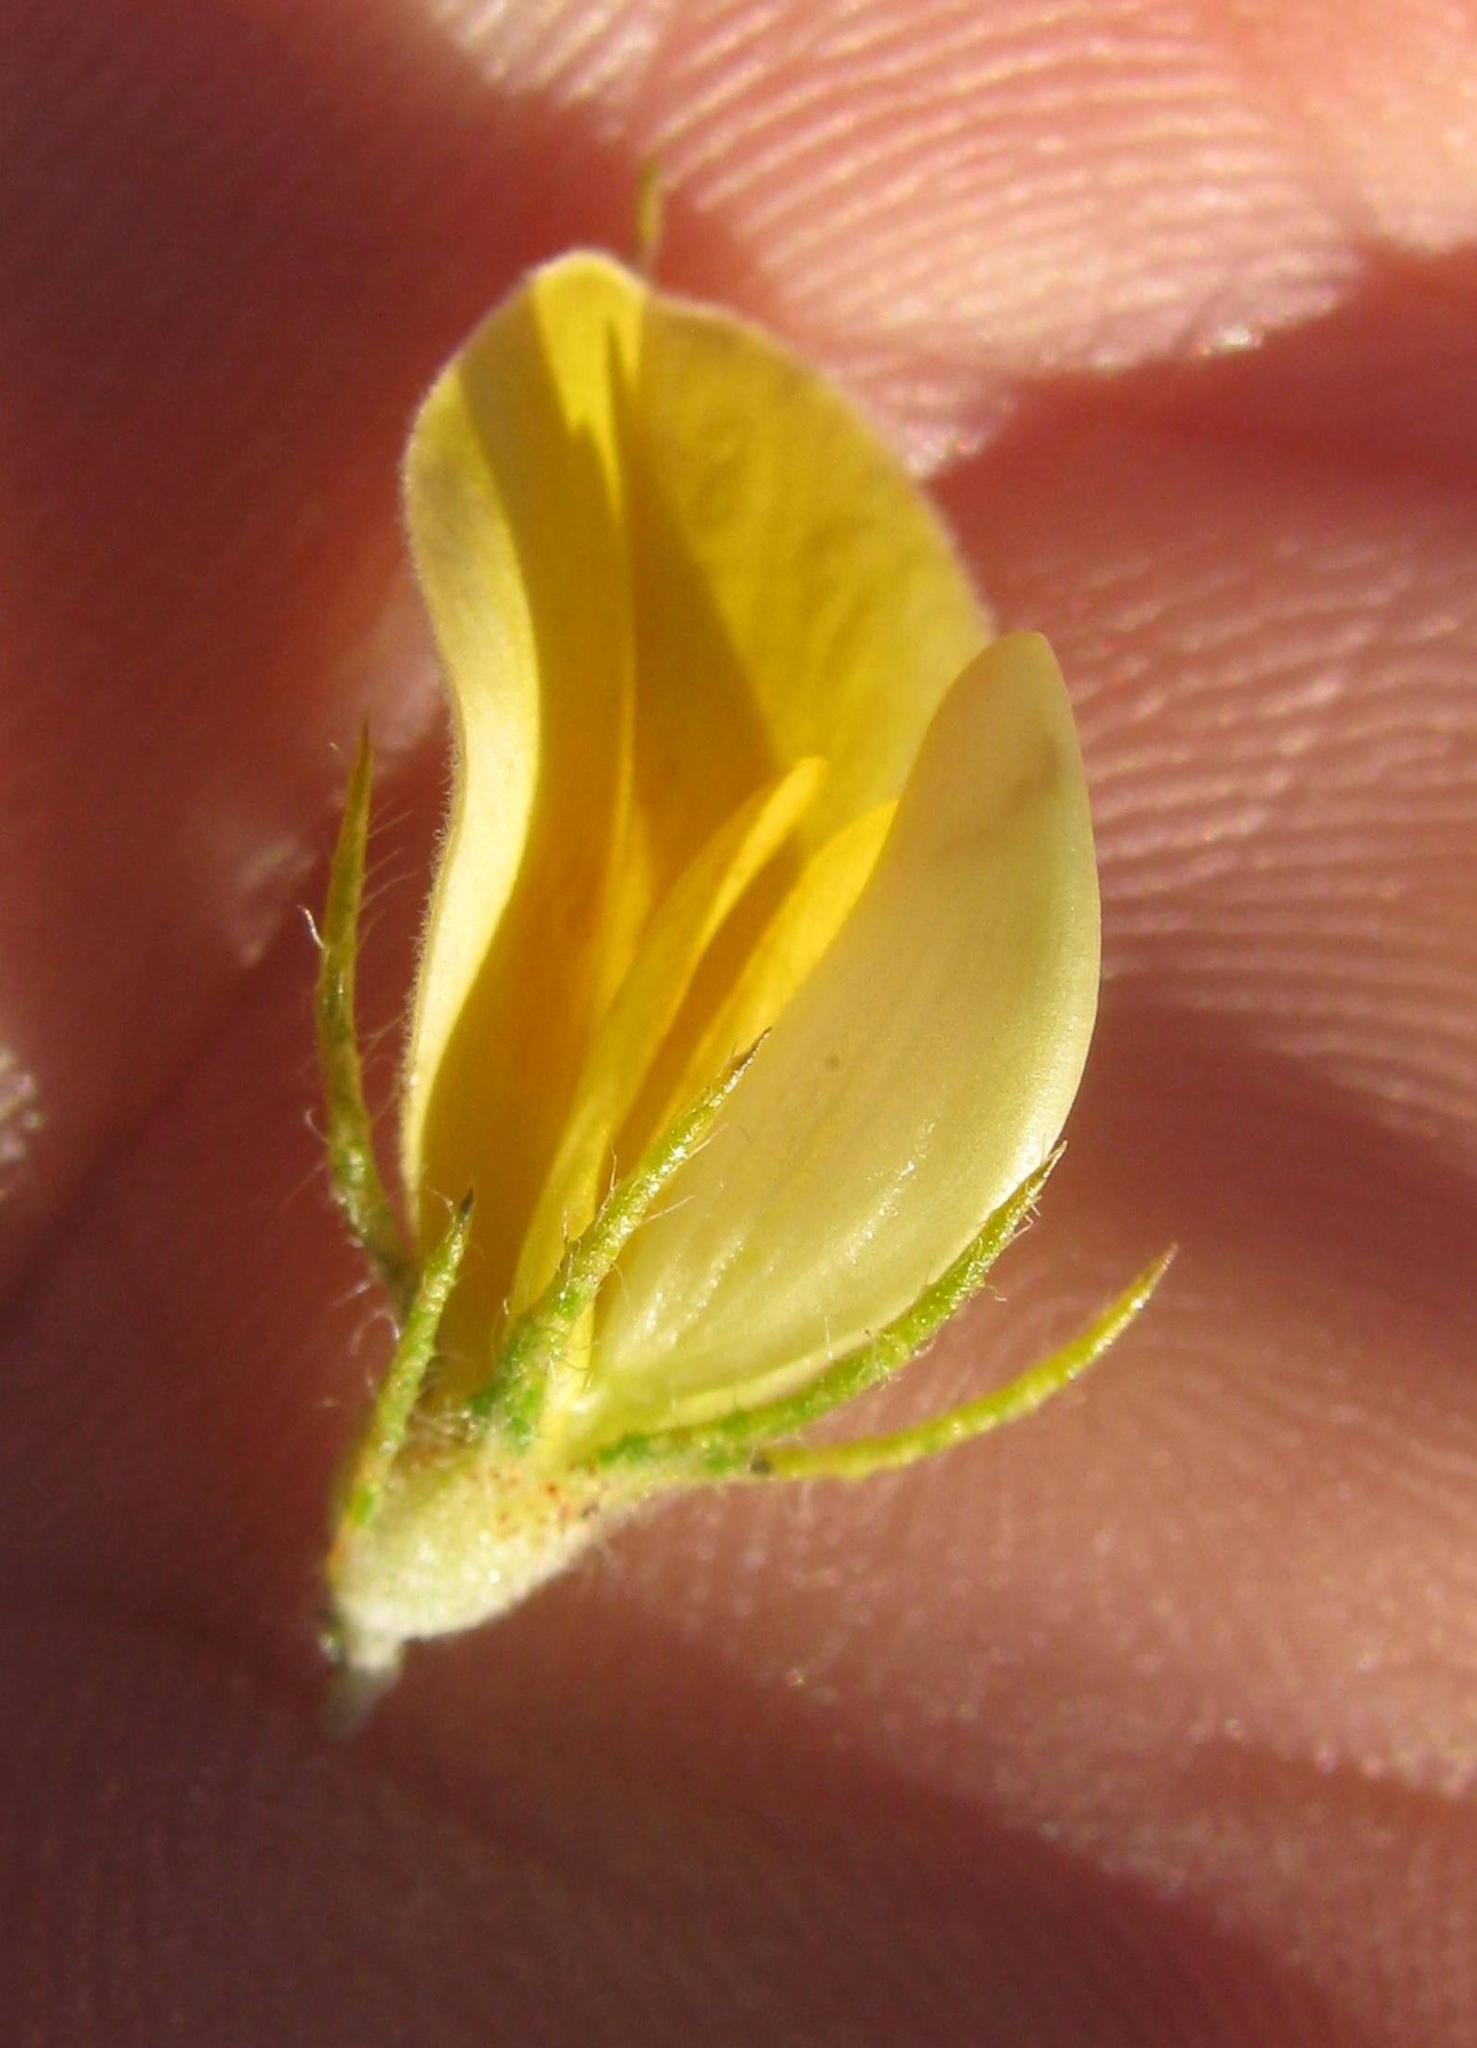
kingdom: Plantae
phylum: Tracheophyta
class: Magnoliopsida
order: Fabales
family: Fabaceae
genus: Aspalathus
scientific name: Aspalathus spicata
